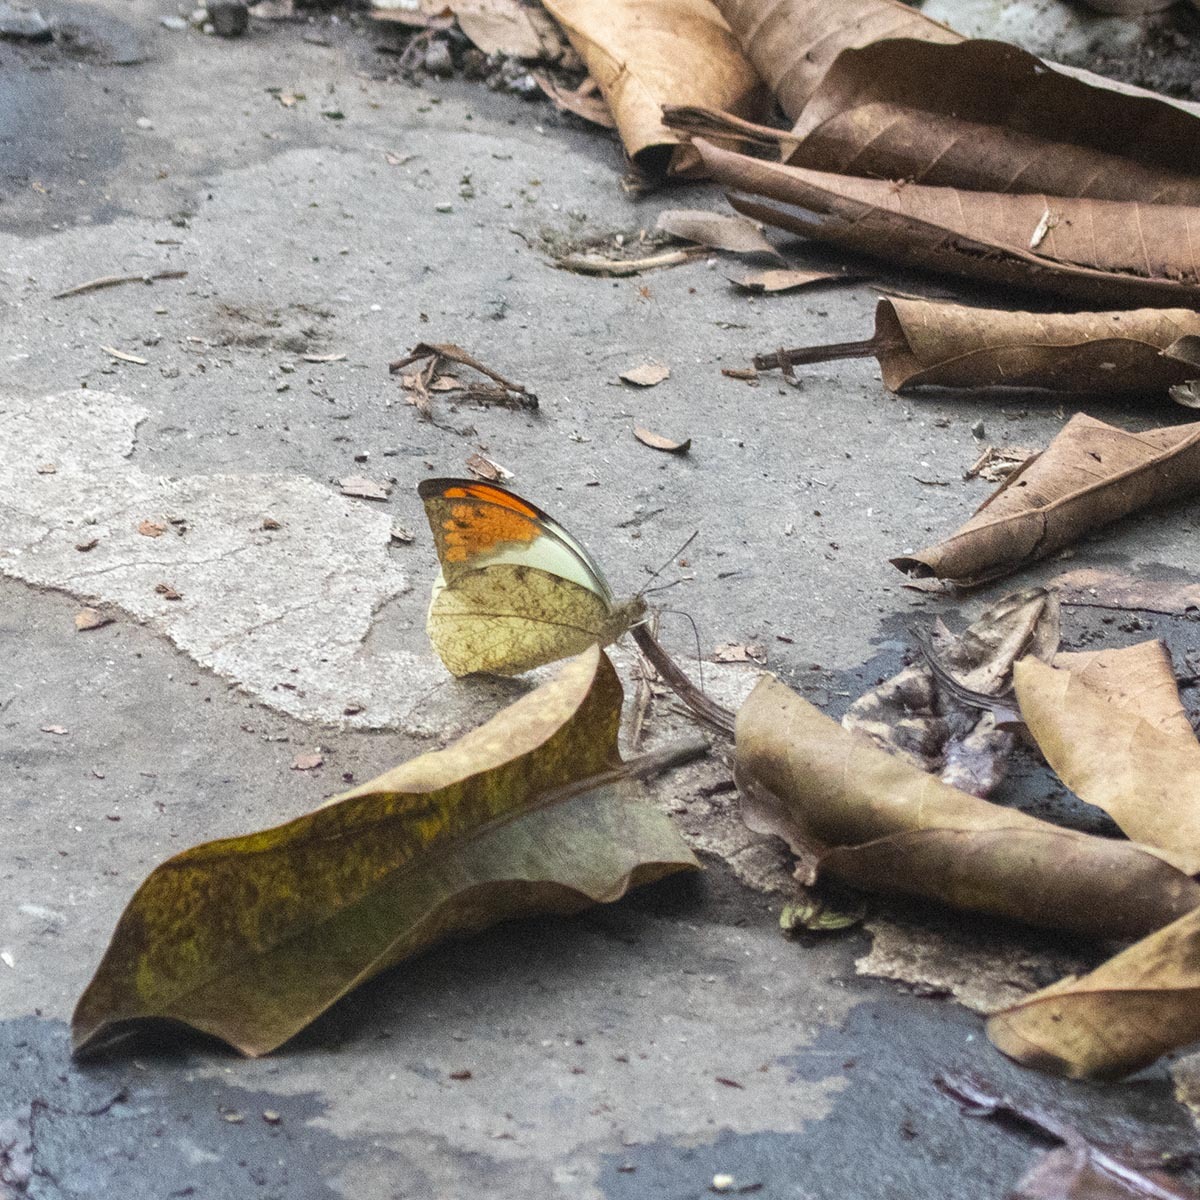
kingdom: Animalia
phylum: Arthropoda
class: Insecta
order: Lepidoptera
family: Pieridae
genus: Hebomoia
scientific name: Hebomoia glaucippe
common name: Great orange tip
